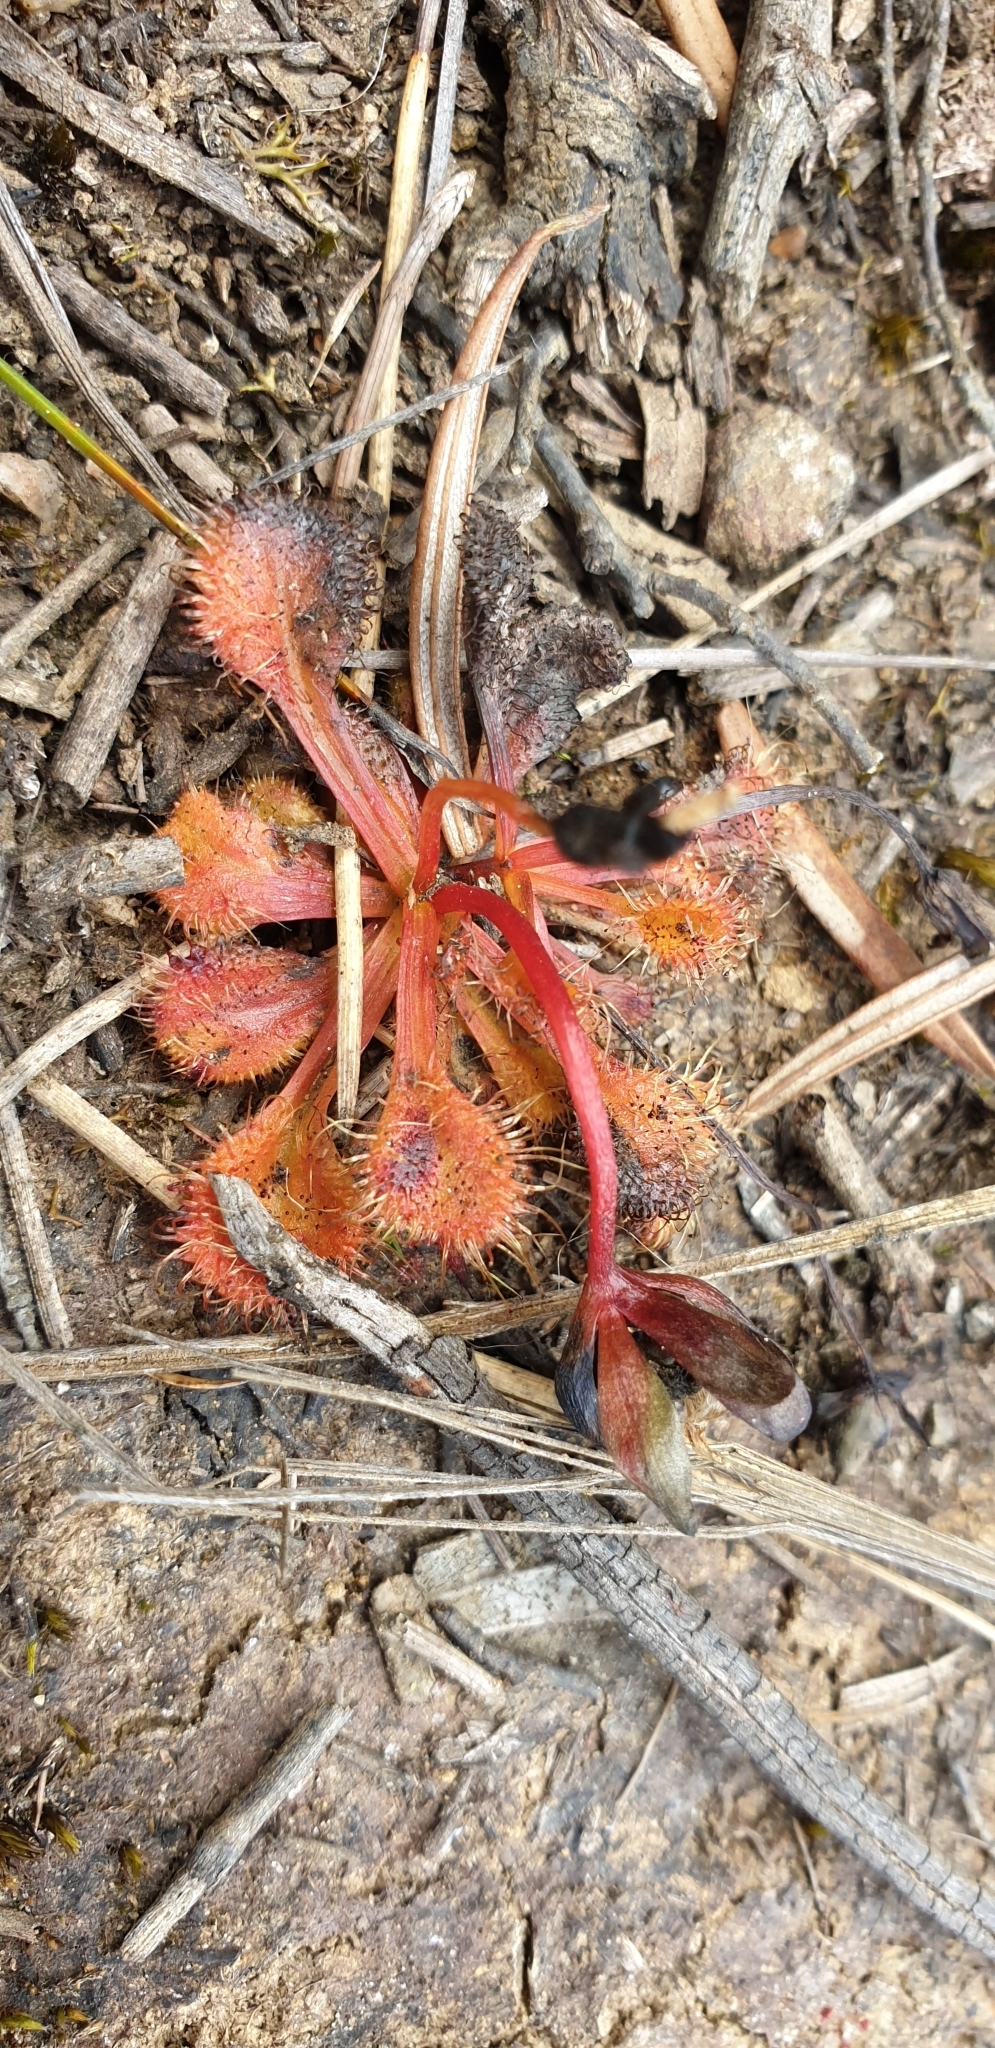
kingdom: Plantae
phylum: Tracheophyta
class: Magnoliopsida
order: Caryophyllales
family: Droseraceae
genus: Drosera
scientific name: Drosera schmutzii
